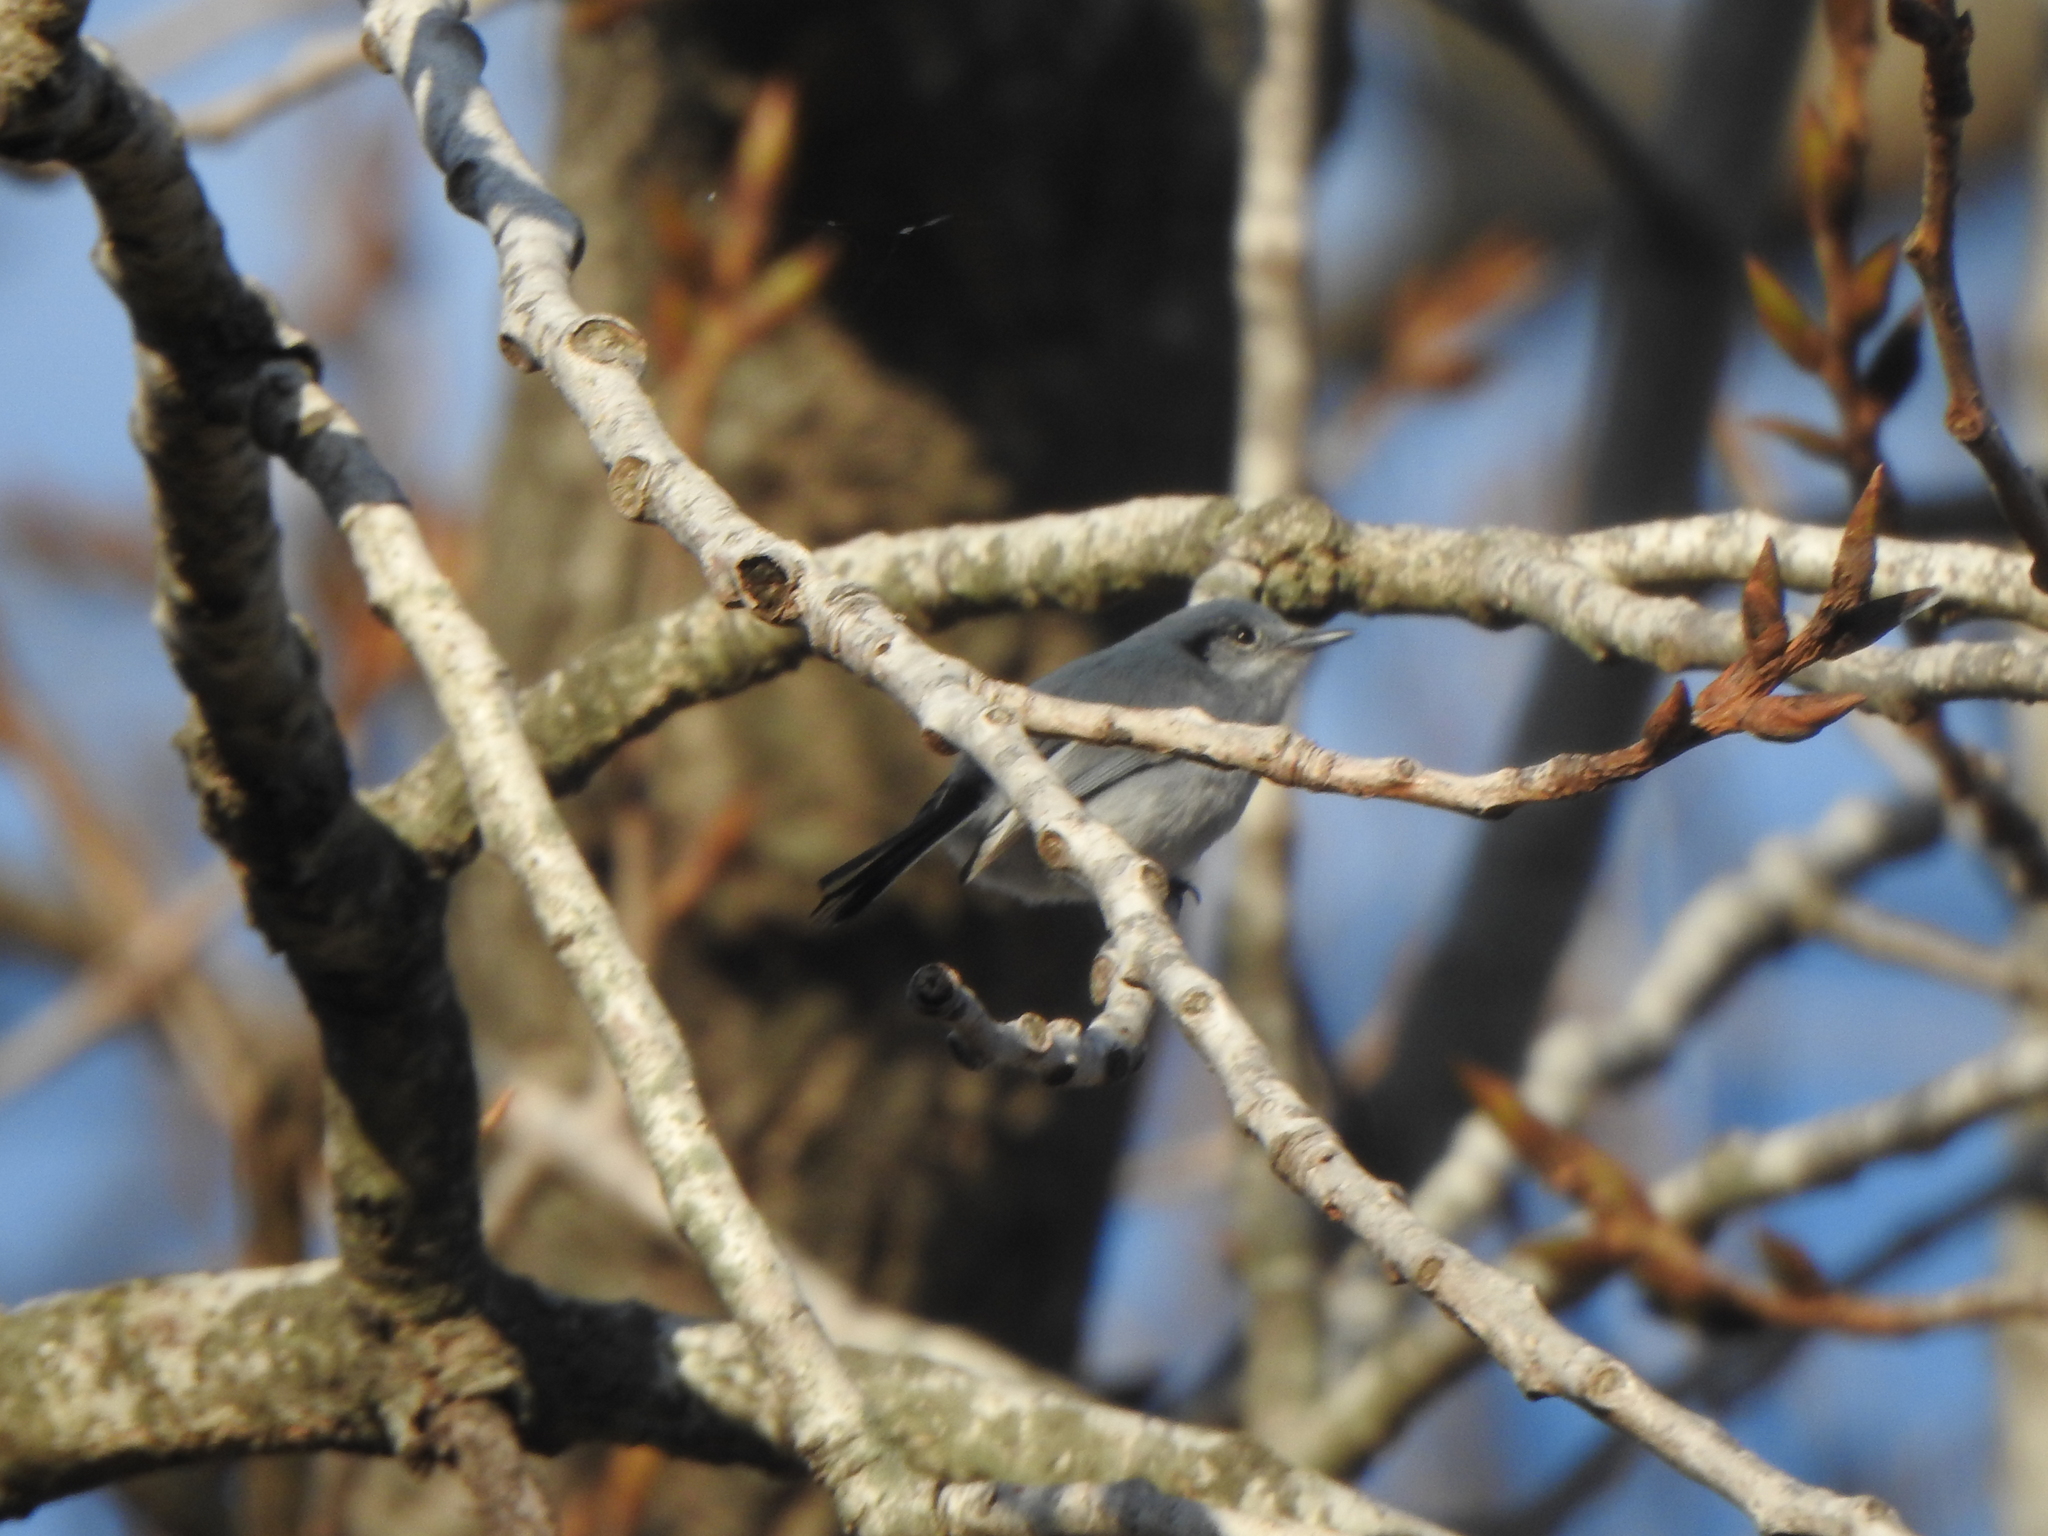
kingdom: Animalia
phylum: Chordata
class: Aves
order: Passeriformes
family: Polioptilidae
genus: Polioptila
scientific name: Polioptila dumicola
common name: Masked gnatcatcher
